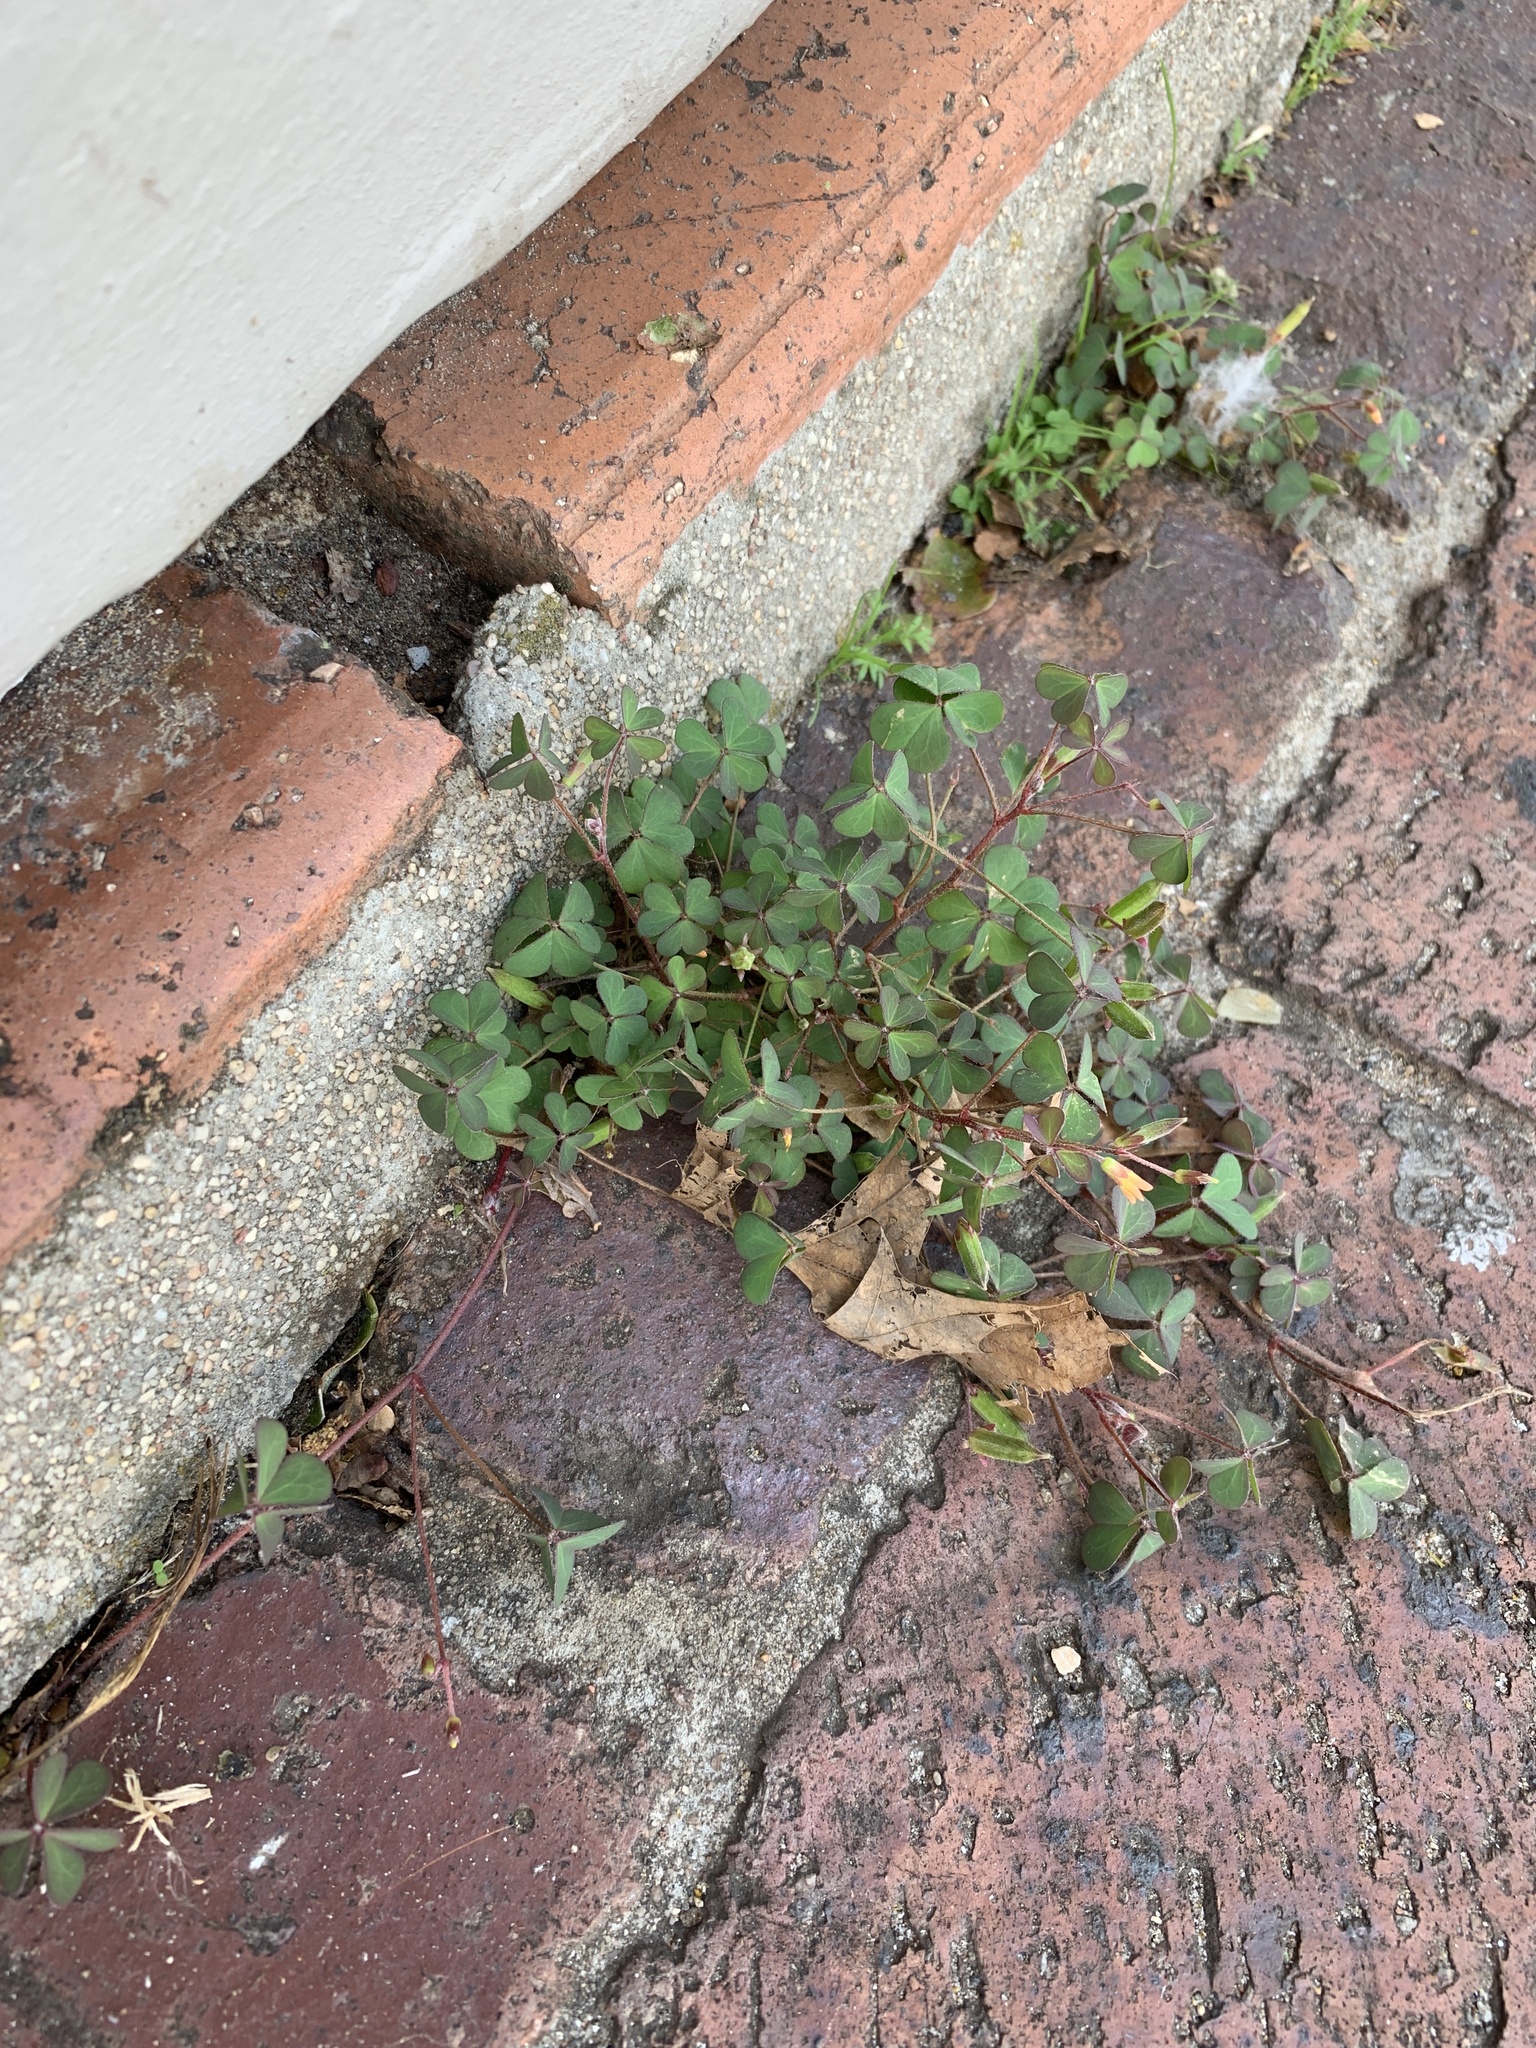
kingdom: Plantae
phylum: Tracheophyta
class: Magnoliopsida
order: Oxalidales
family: Oxalidaceae
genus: Oxalis
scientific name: Oxalis corniculata
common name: Procumbent yellow-sorrel
